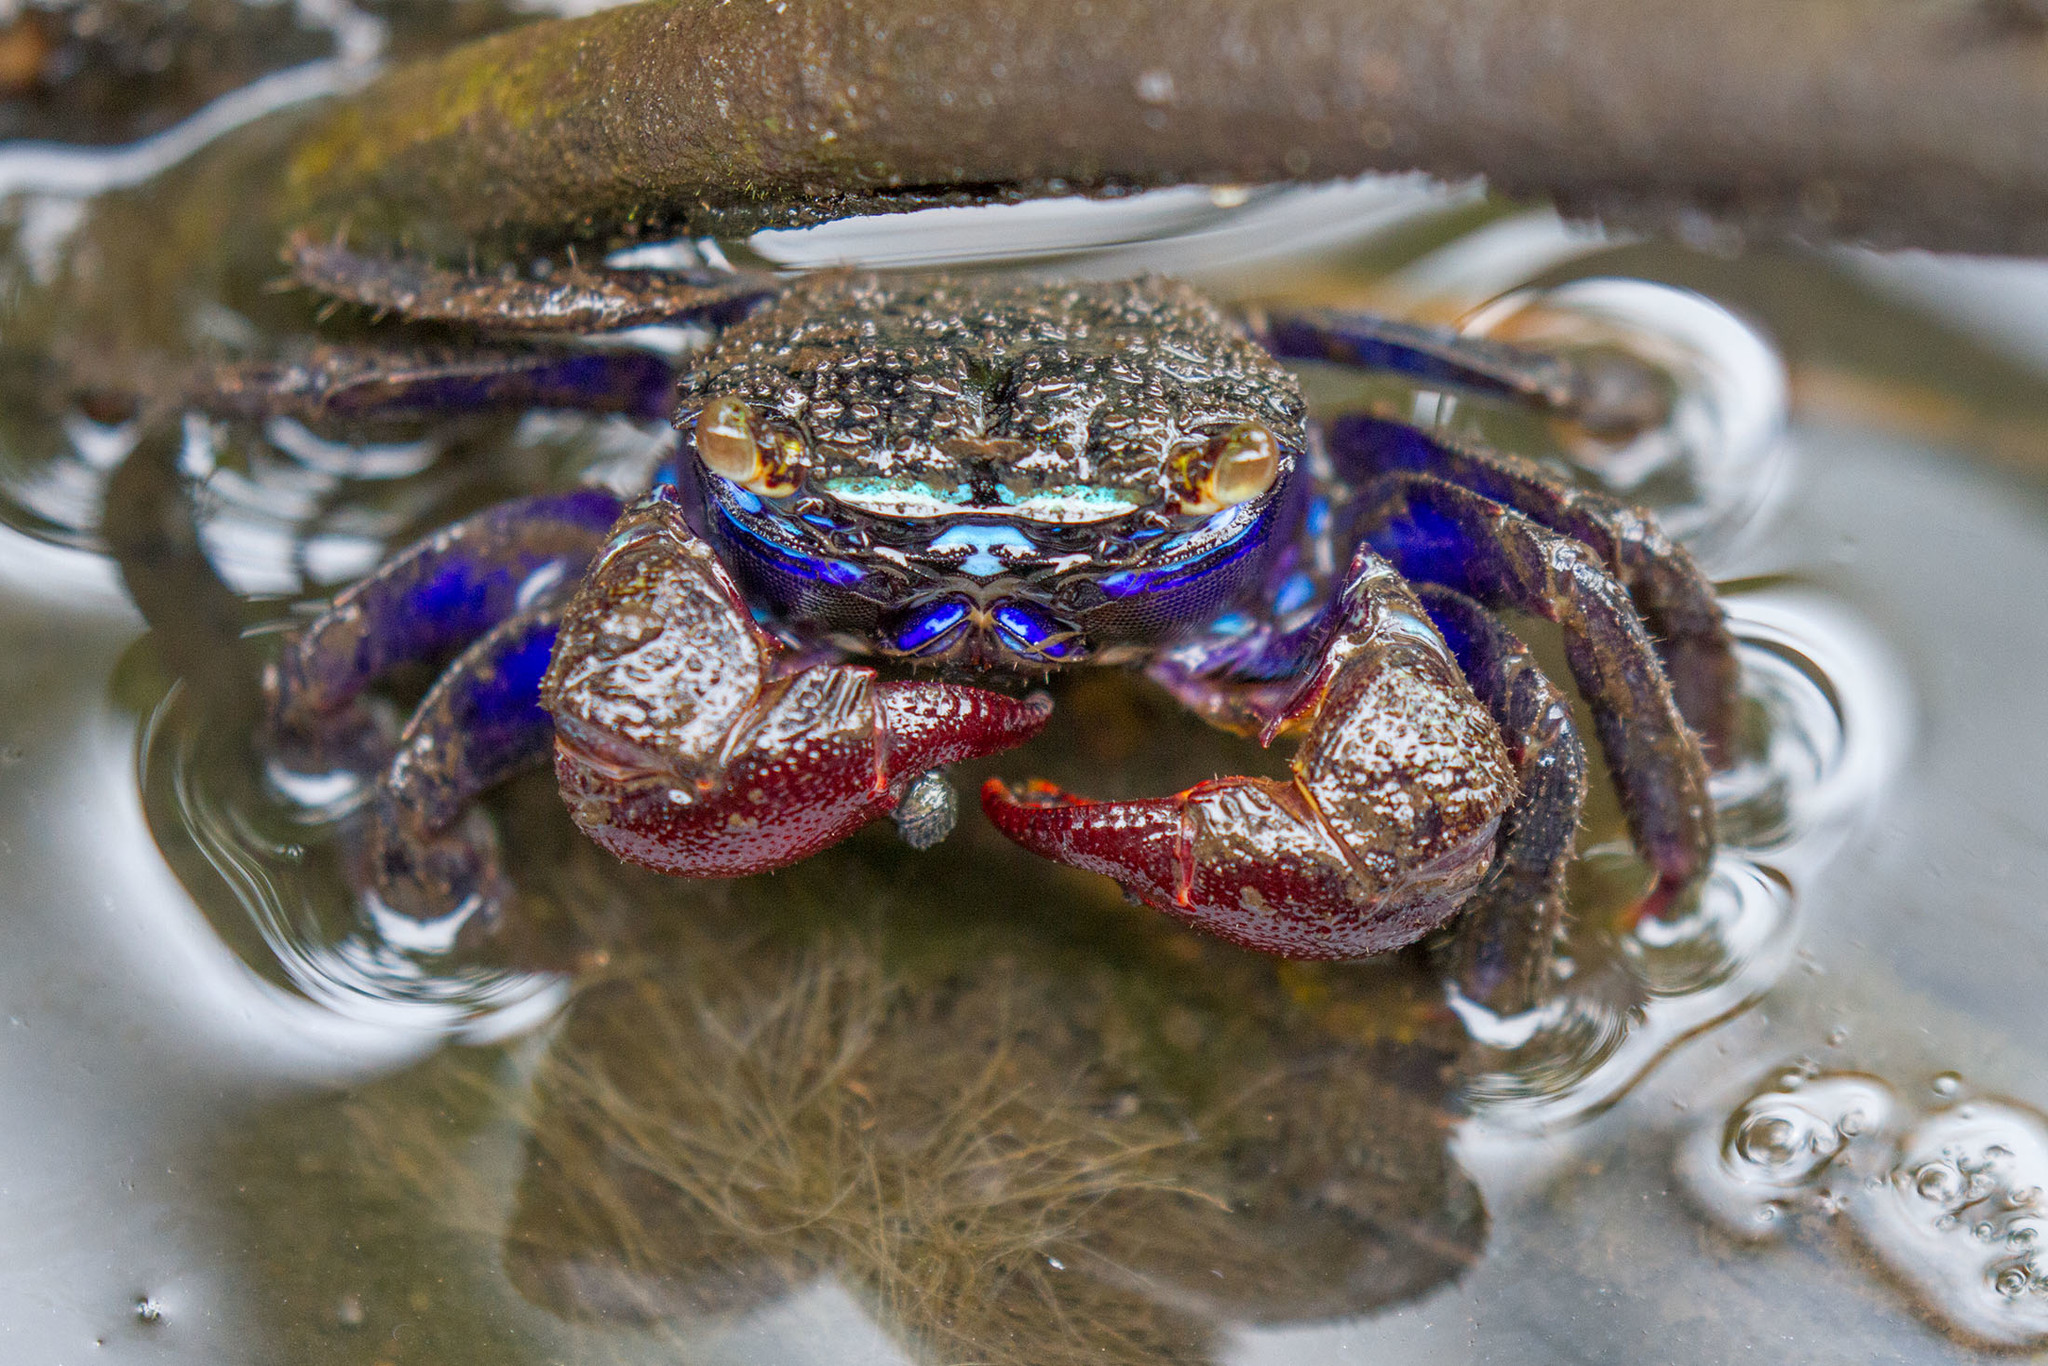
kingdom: Animalia
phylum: Arthropoda
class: Malacostraca
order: Decapoda
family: Sesarmidae
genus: Parasesarma
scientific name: Parasesarma indiarum
